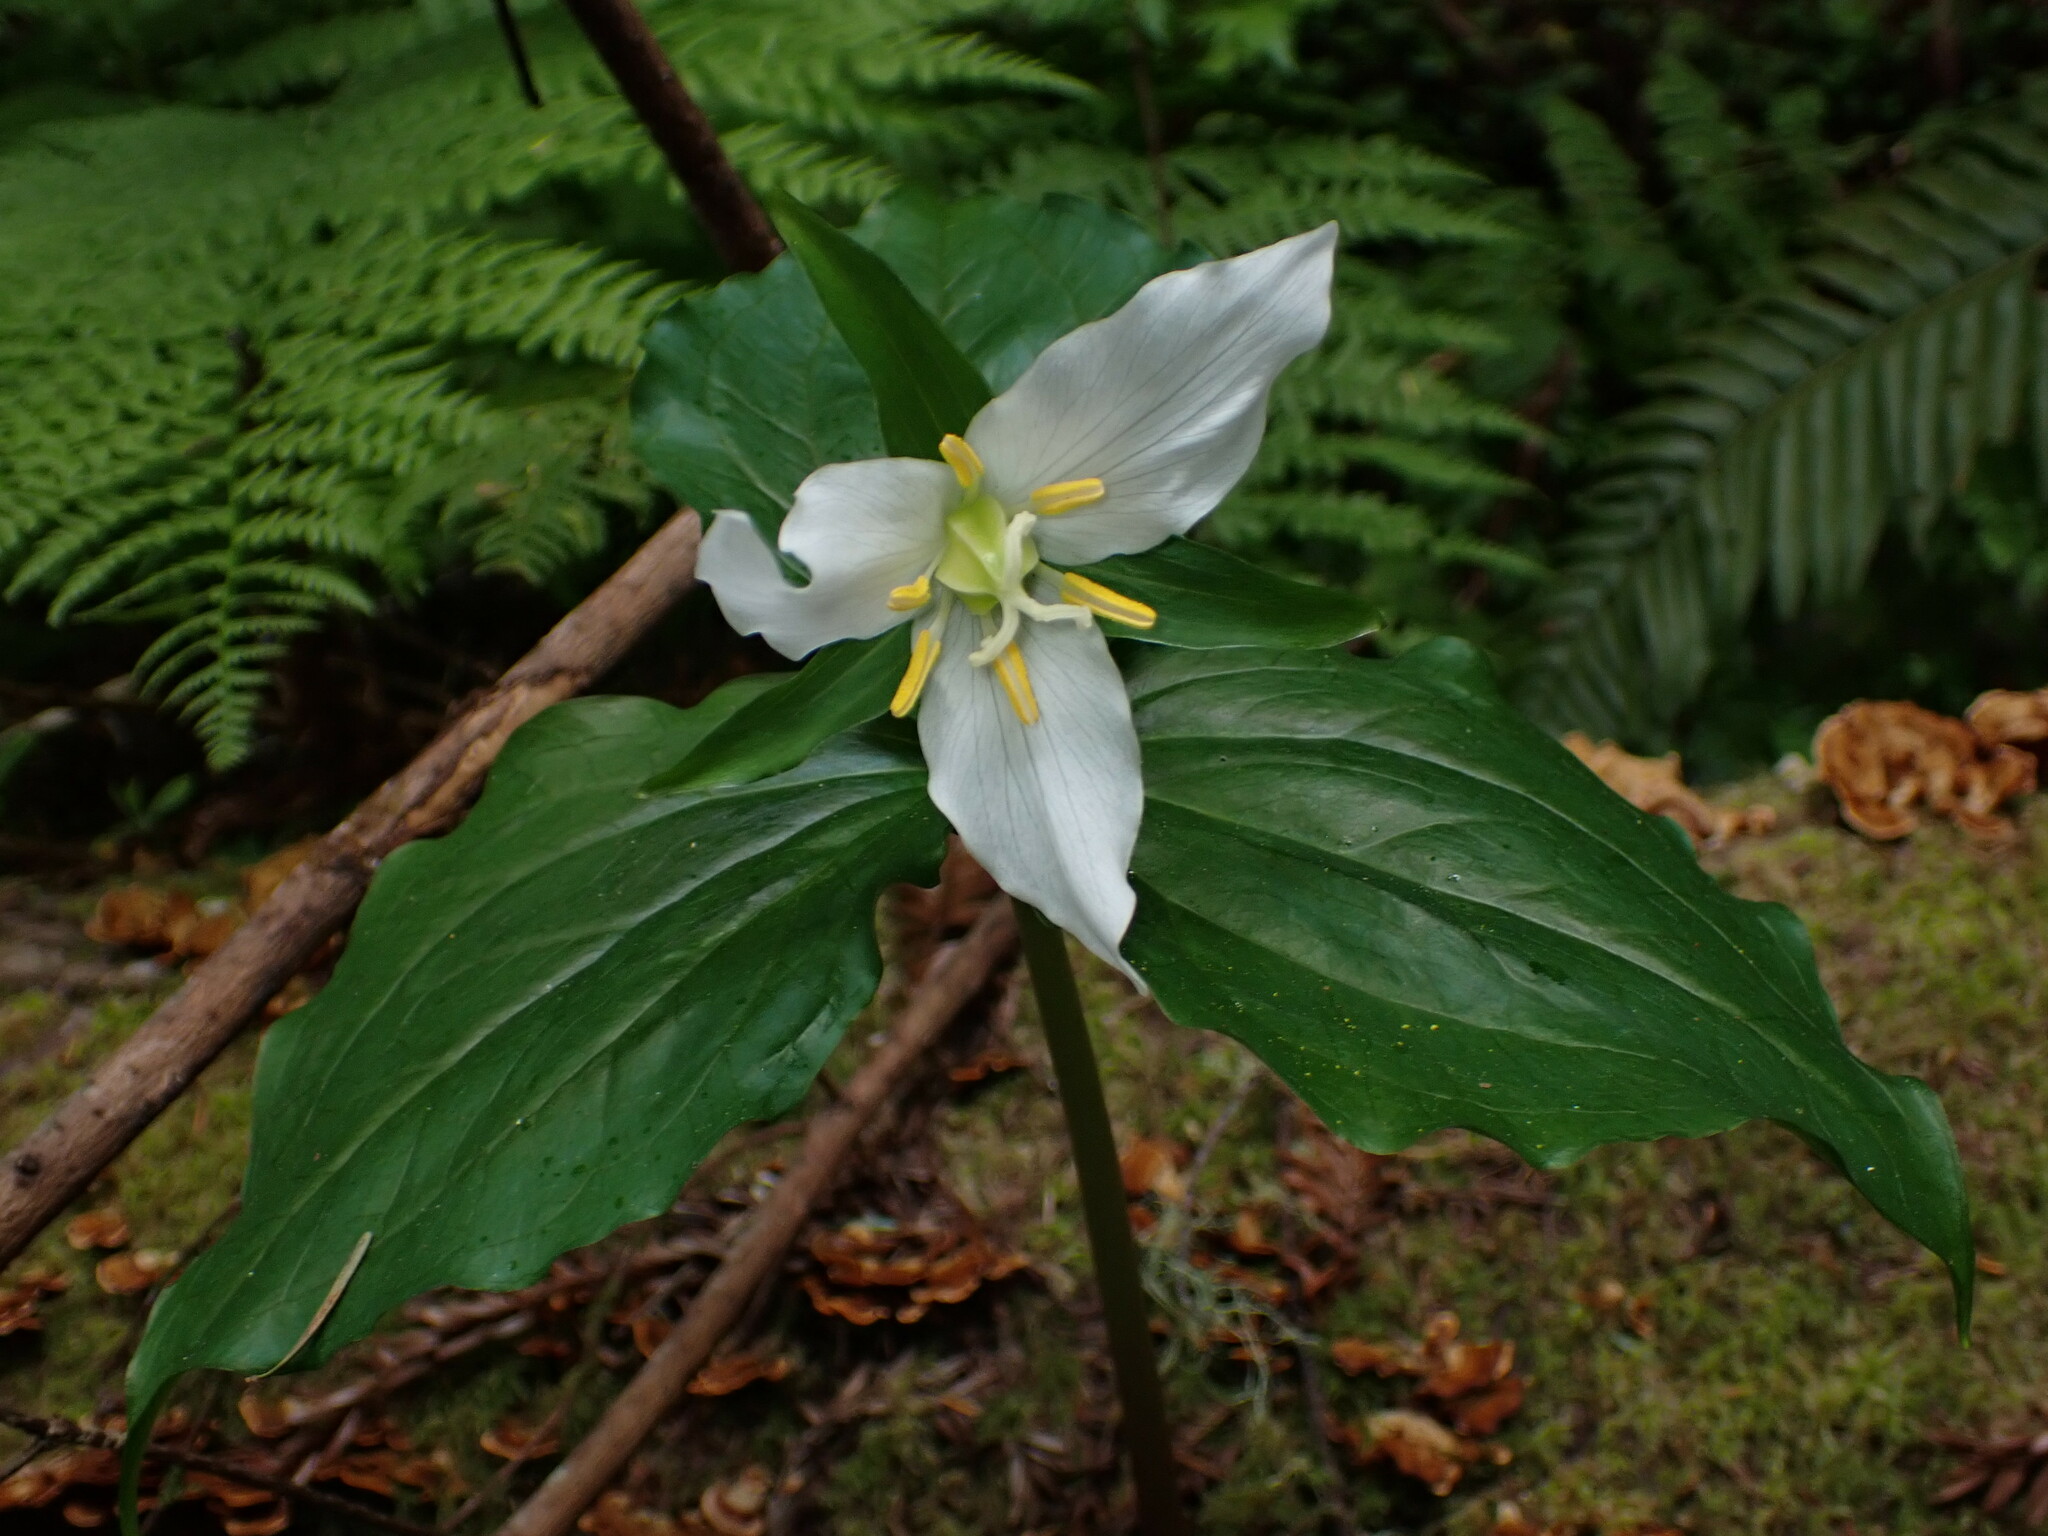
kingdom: Plantae
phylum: Tracheophyta
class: Liliopsida
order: Liliales
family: Melanthiaceae
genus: Trillium
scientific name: Trillium ovatum
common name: Pacific trillium
